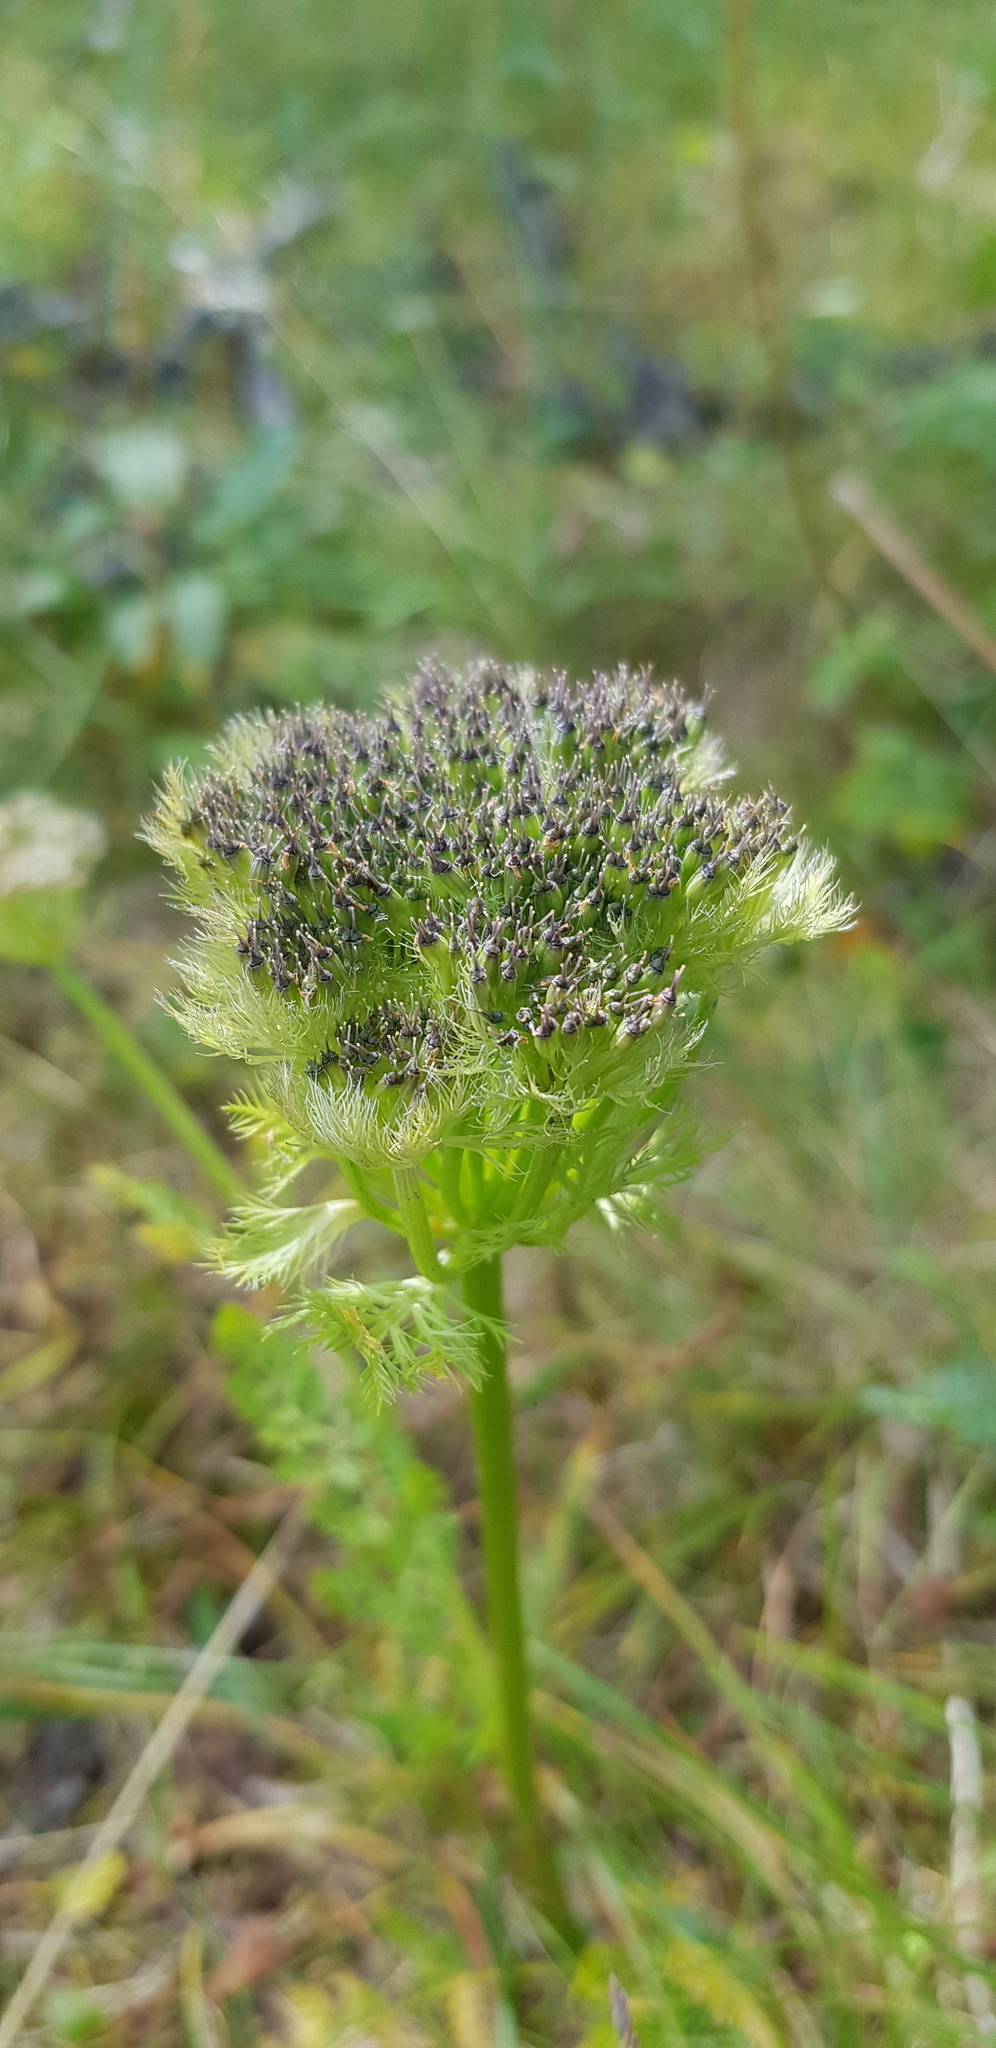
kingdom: Plantae
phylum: Tracheophyta
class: Magnoliopsida
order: Apiales
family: Apiaceae
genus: Schulzia
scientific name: Schulzia crinita
